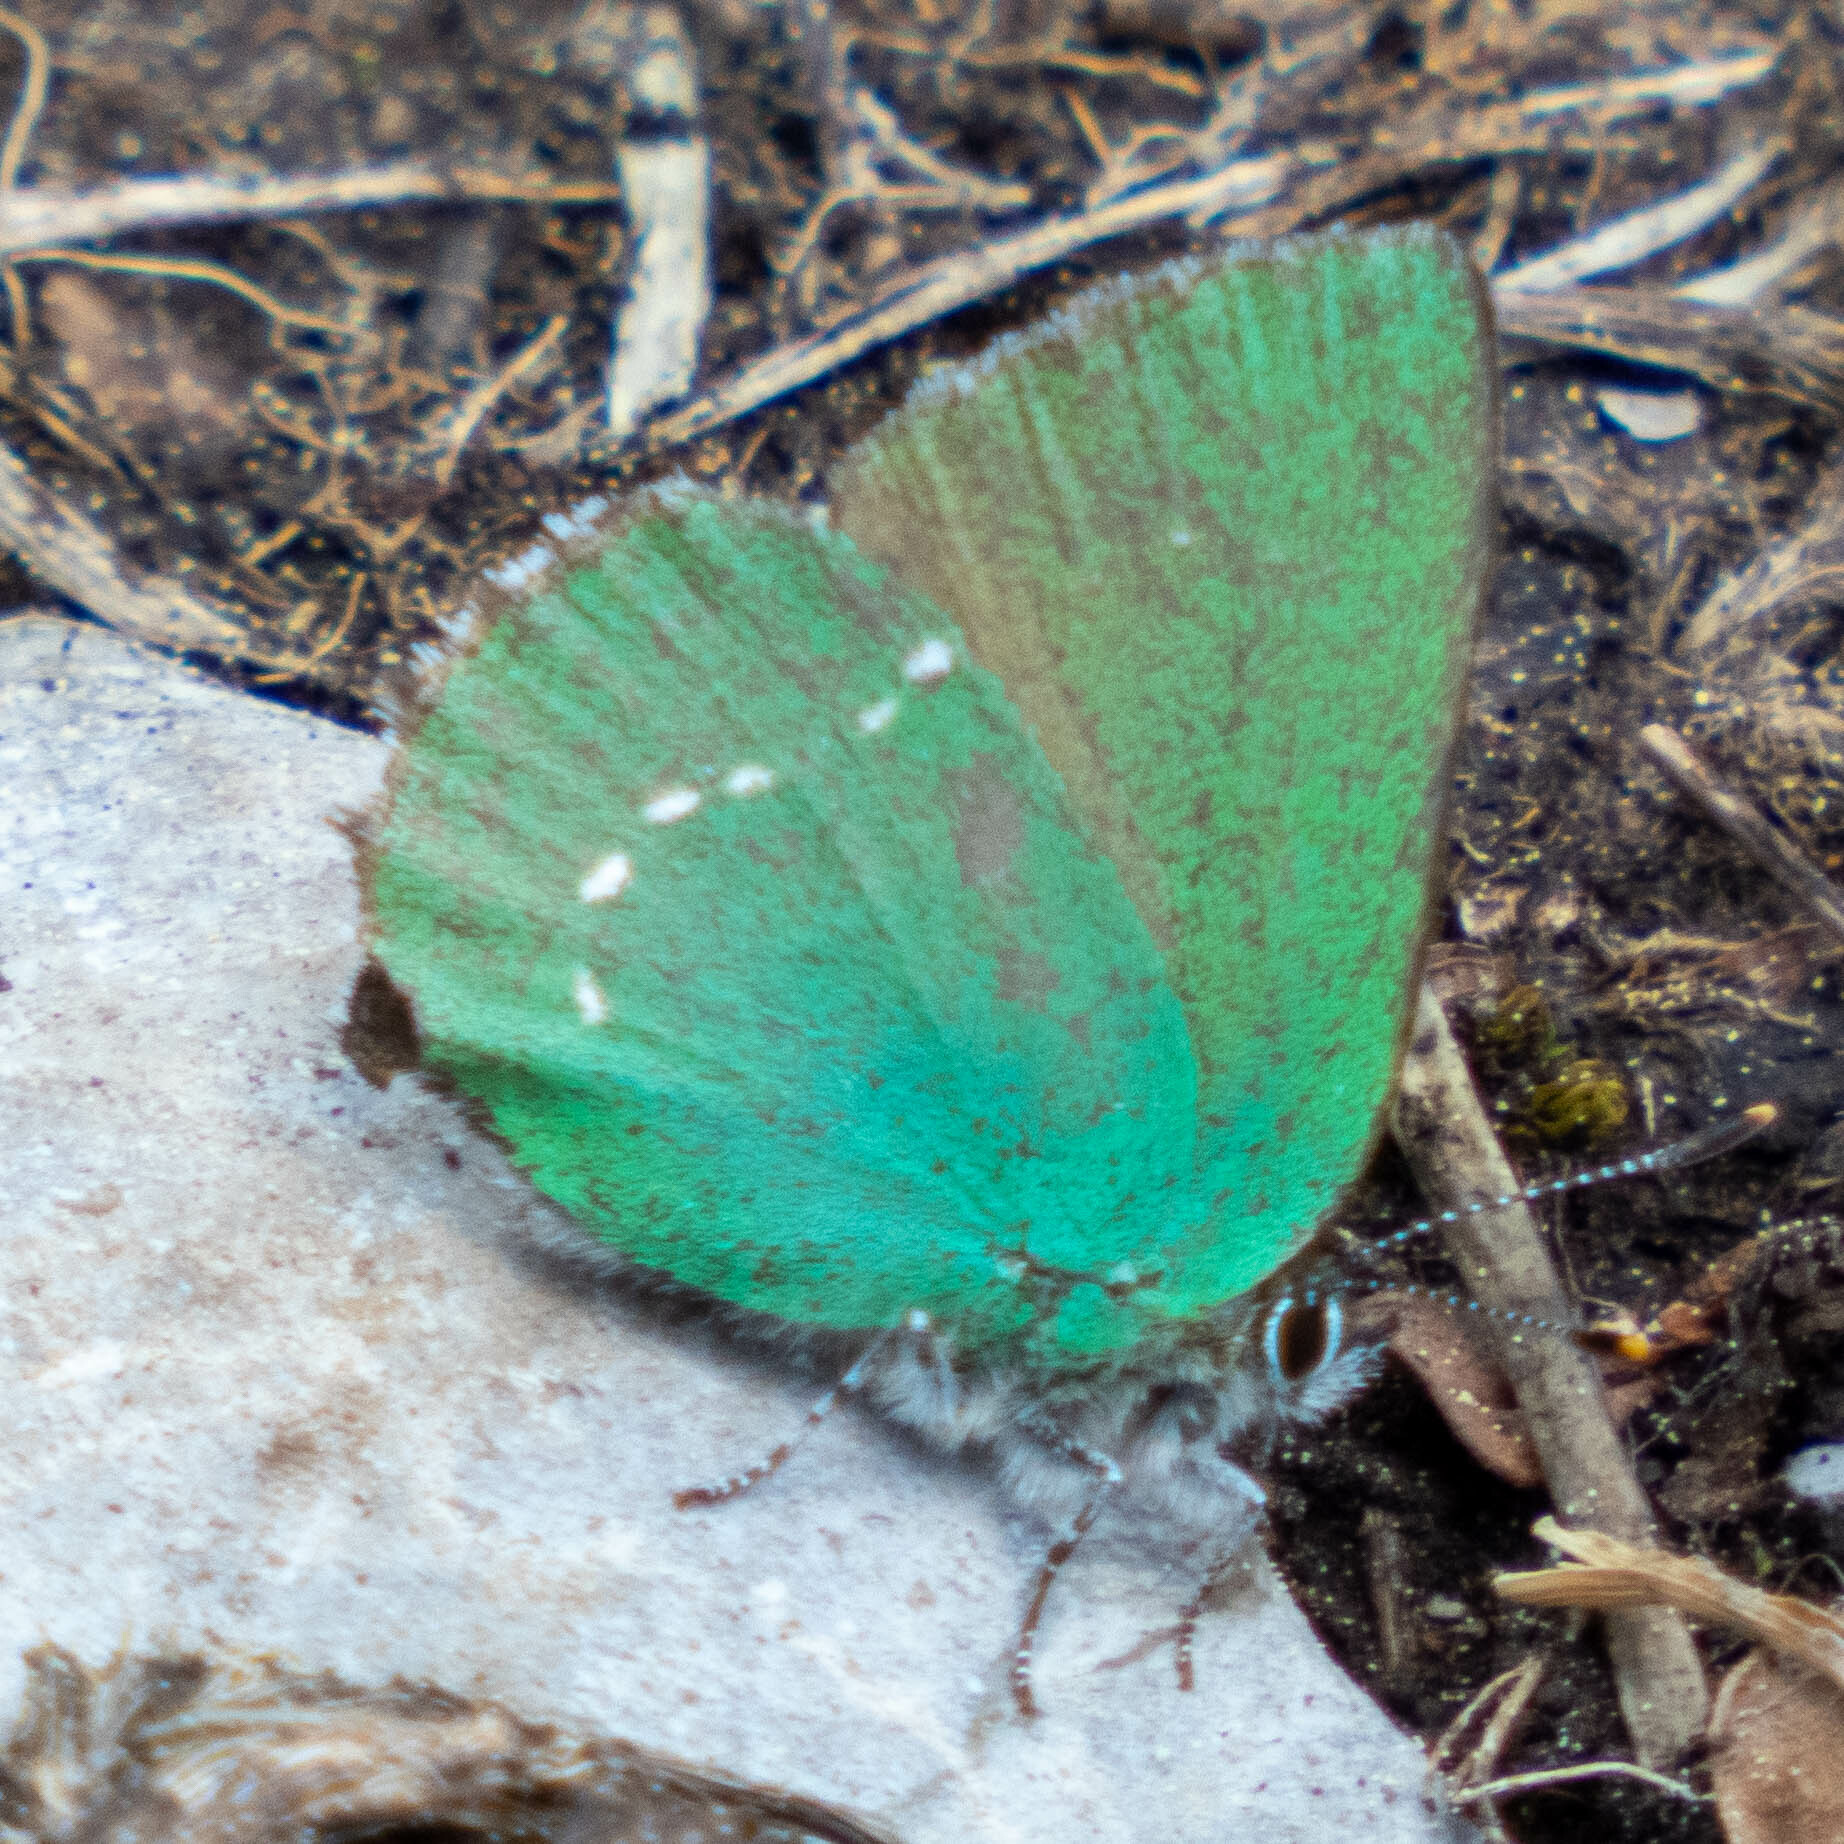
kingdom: Animalia
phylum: Arthropoda
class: Insecta
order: Lepidoptera
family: Lycaenidae
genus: Callophrys
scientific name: Callophrys rubi
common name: Green hairstreak
